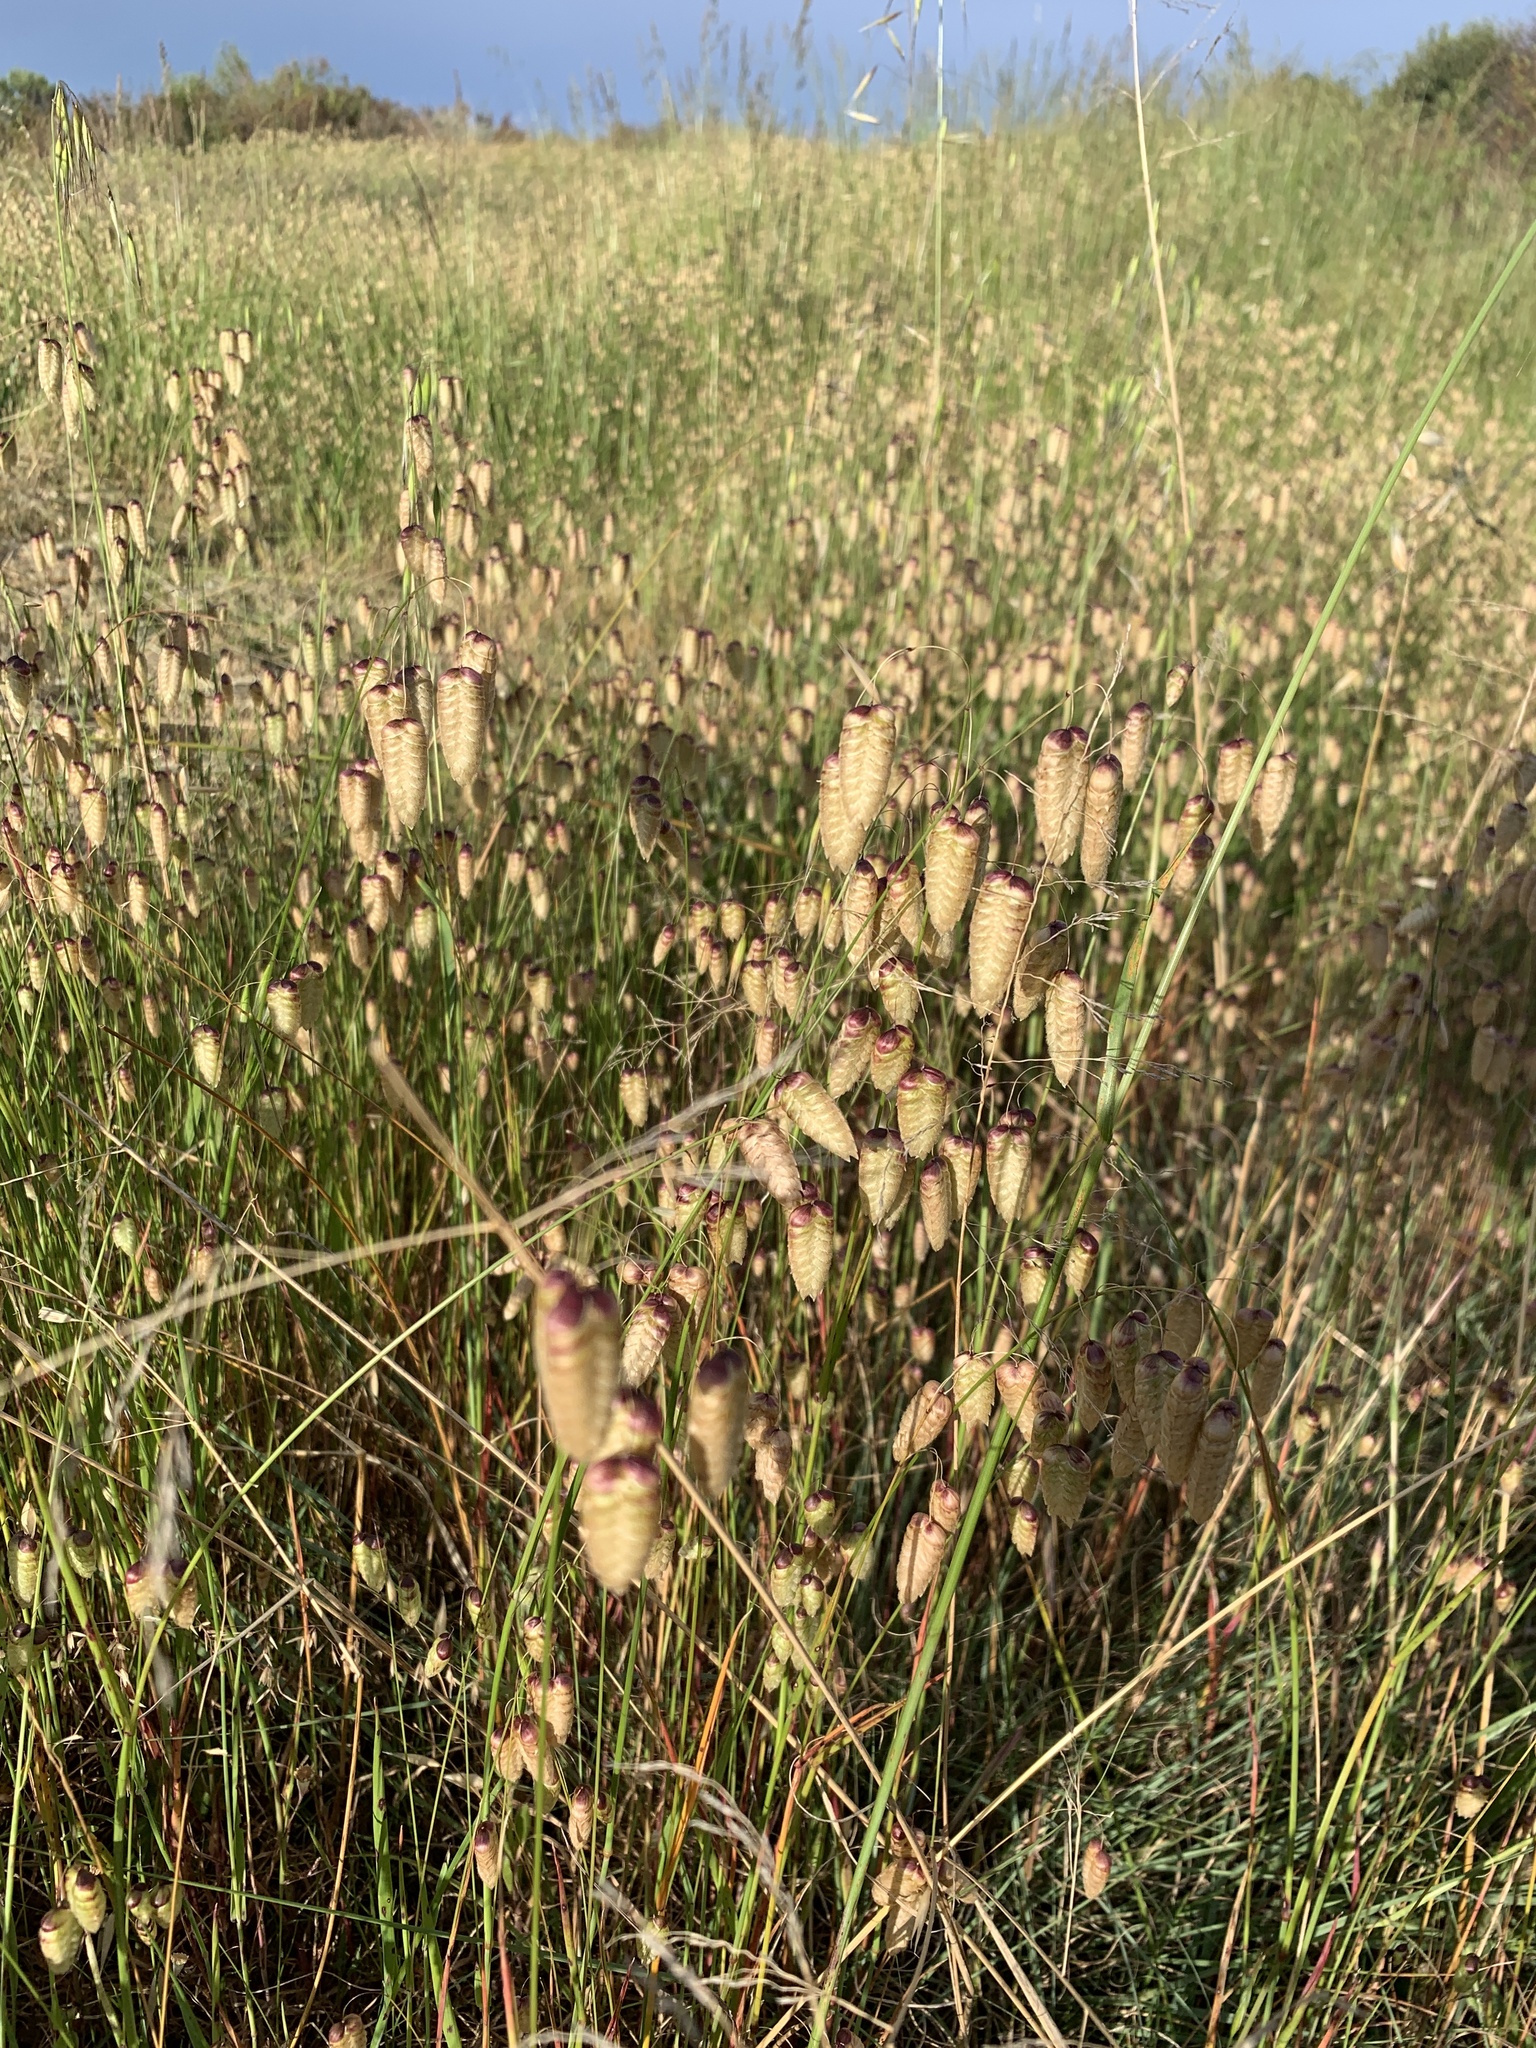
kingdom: Plantae
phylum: Tracheophyta
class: Liliopsida
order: Poales
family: Poaceae
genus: Briza
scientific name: Briza maxima
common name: Big quakinggrass
